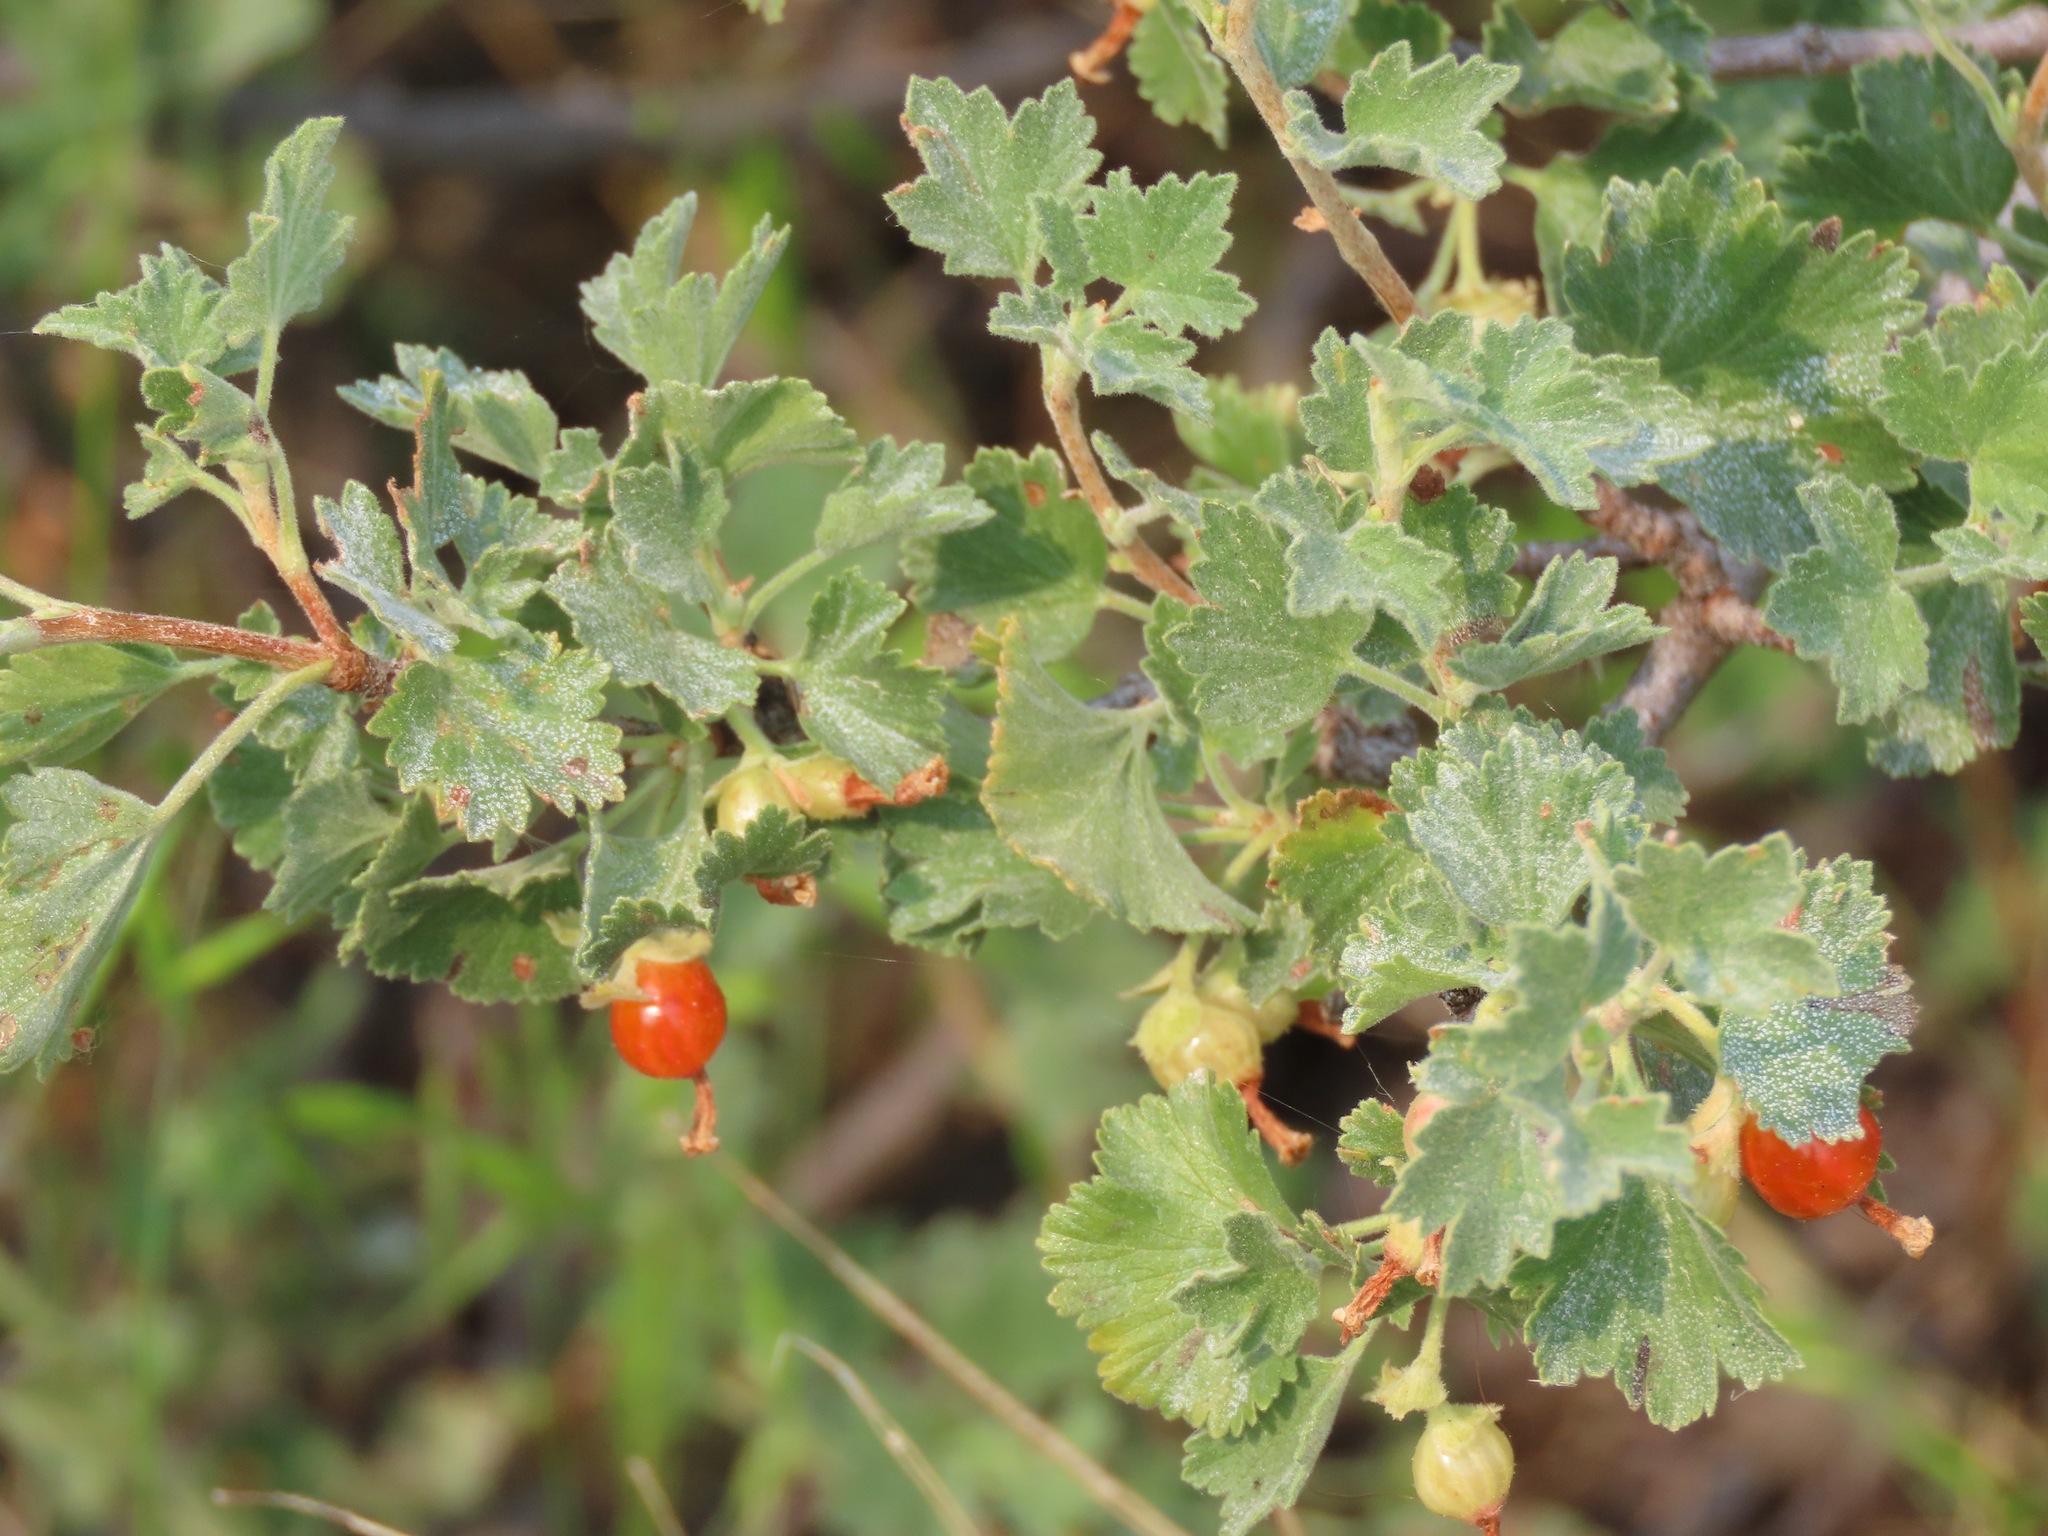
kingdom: Plantae
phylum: Tracheophyta
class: Magnoliopsida
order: Saxifragales
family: Grossulariaceae
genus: Ribes
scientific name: Ribes cereum
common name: Wax currant
